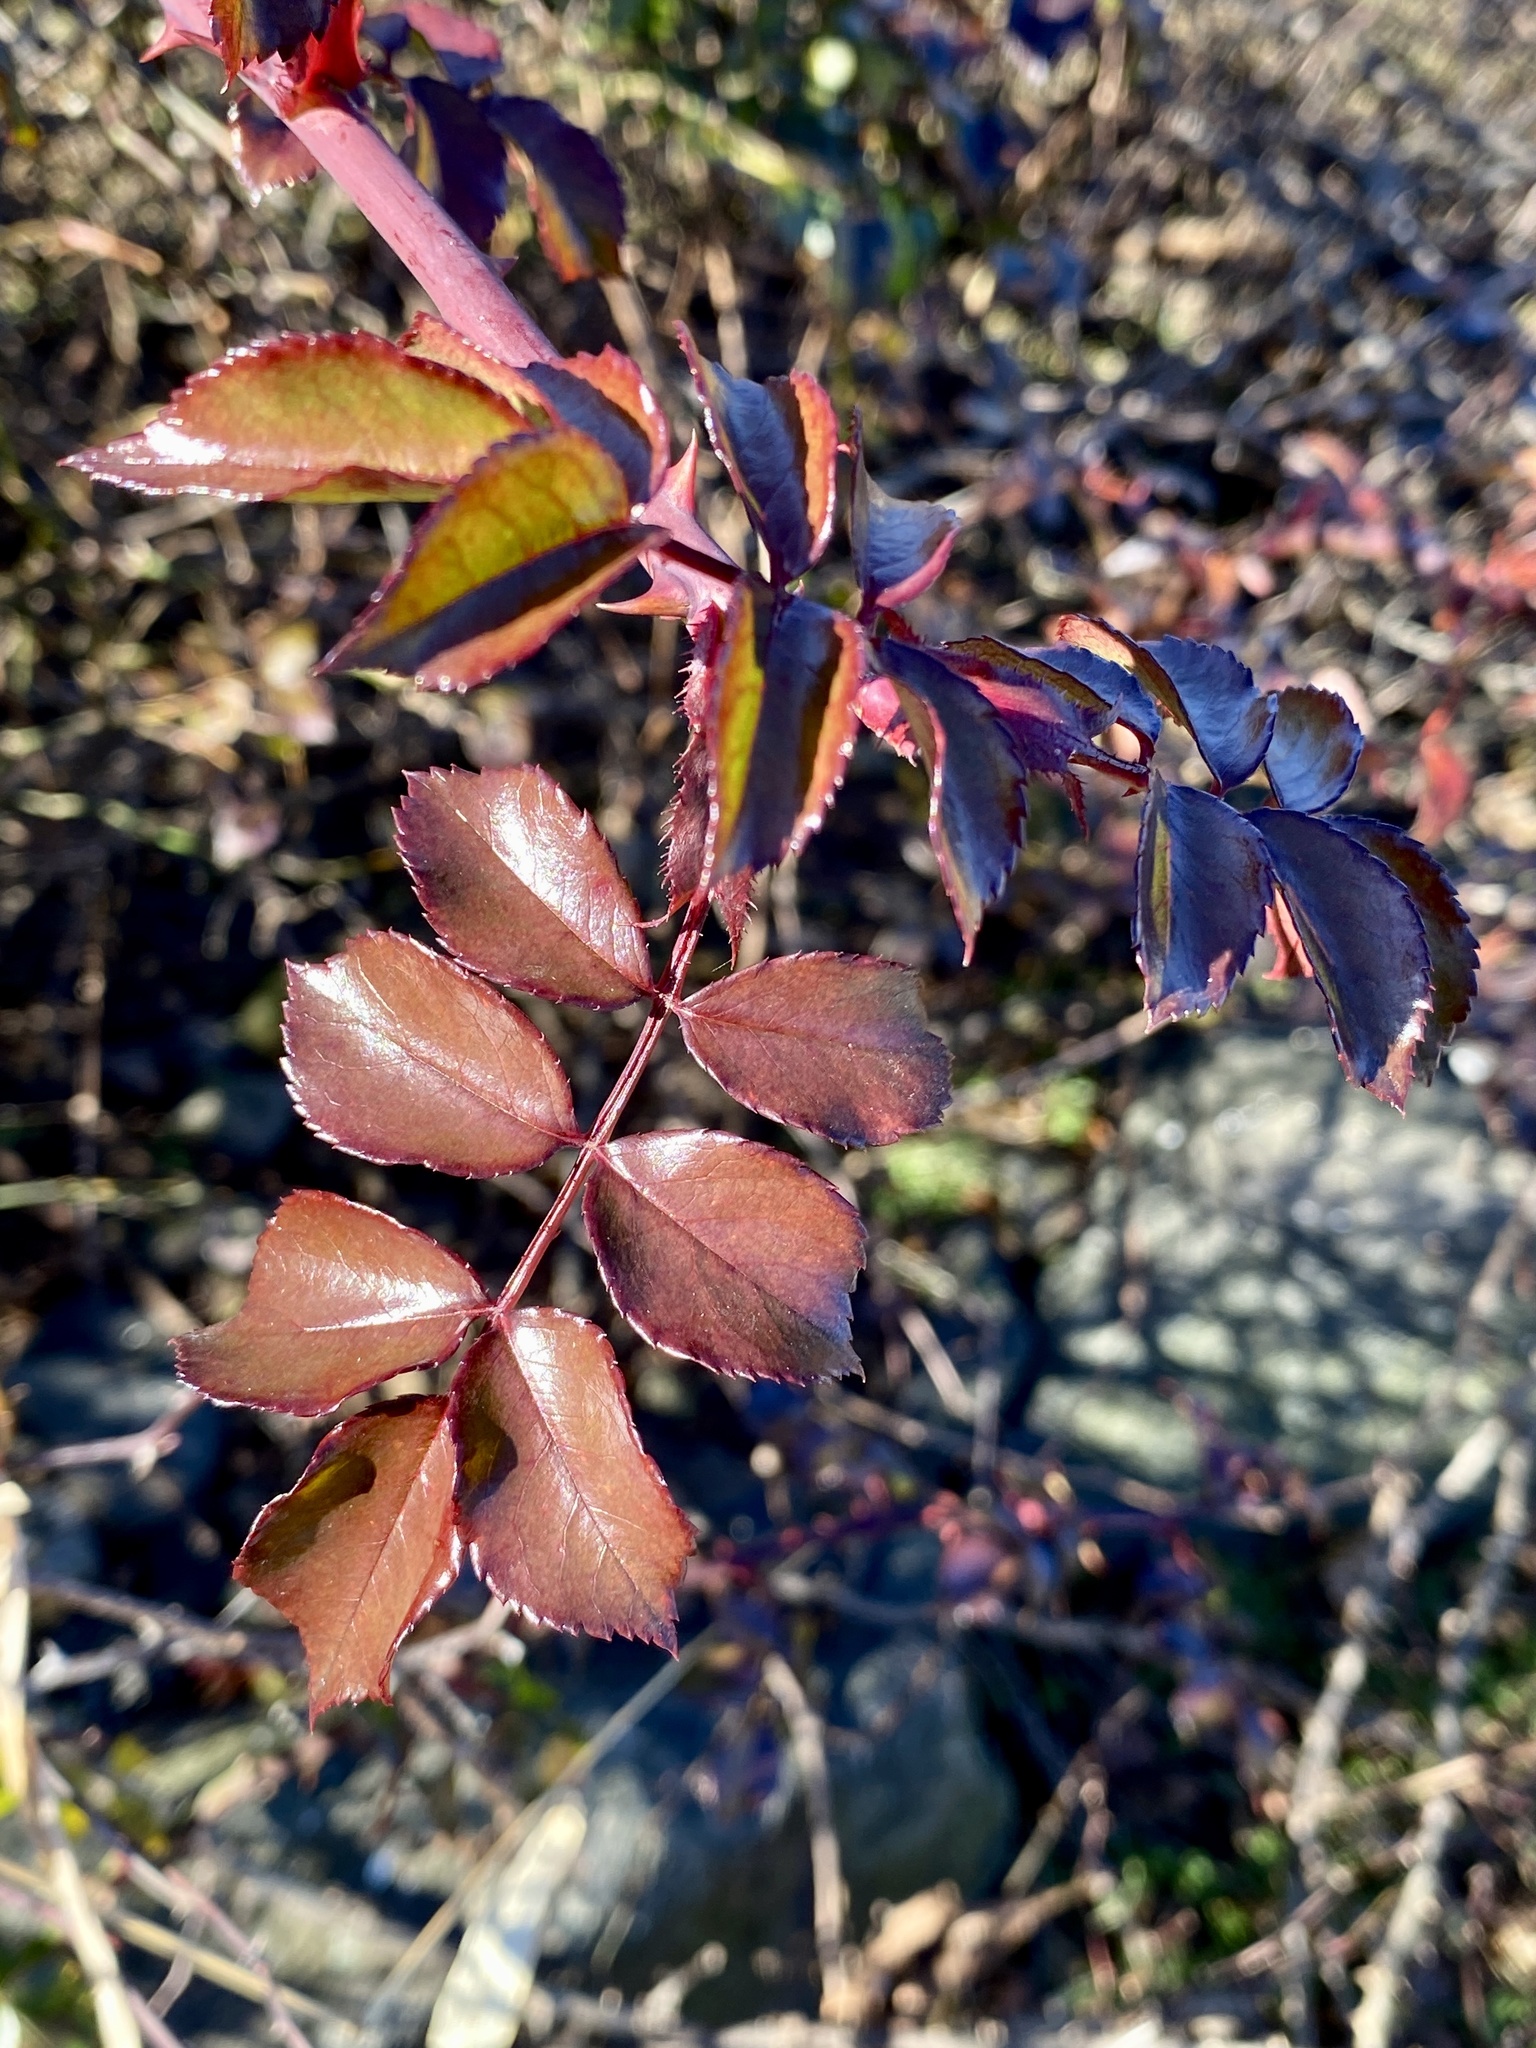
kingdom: Plantae
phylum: Tracheophyta
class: Magnoliopsida
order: Rosales
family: Rosaceae
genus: Rosa
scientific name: Rosa multiflora
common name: Multiflora rose
